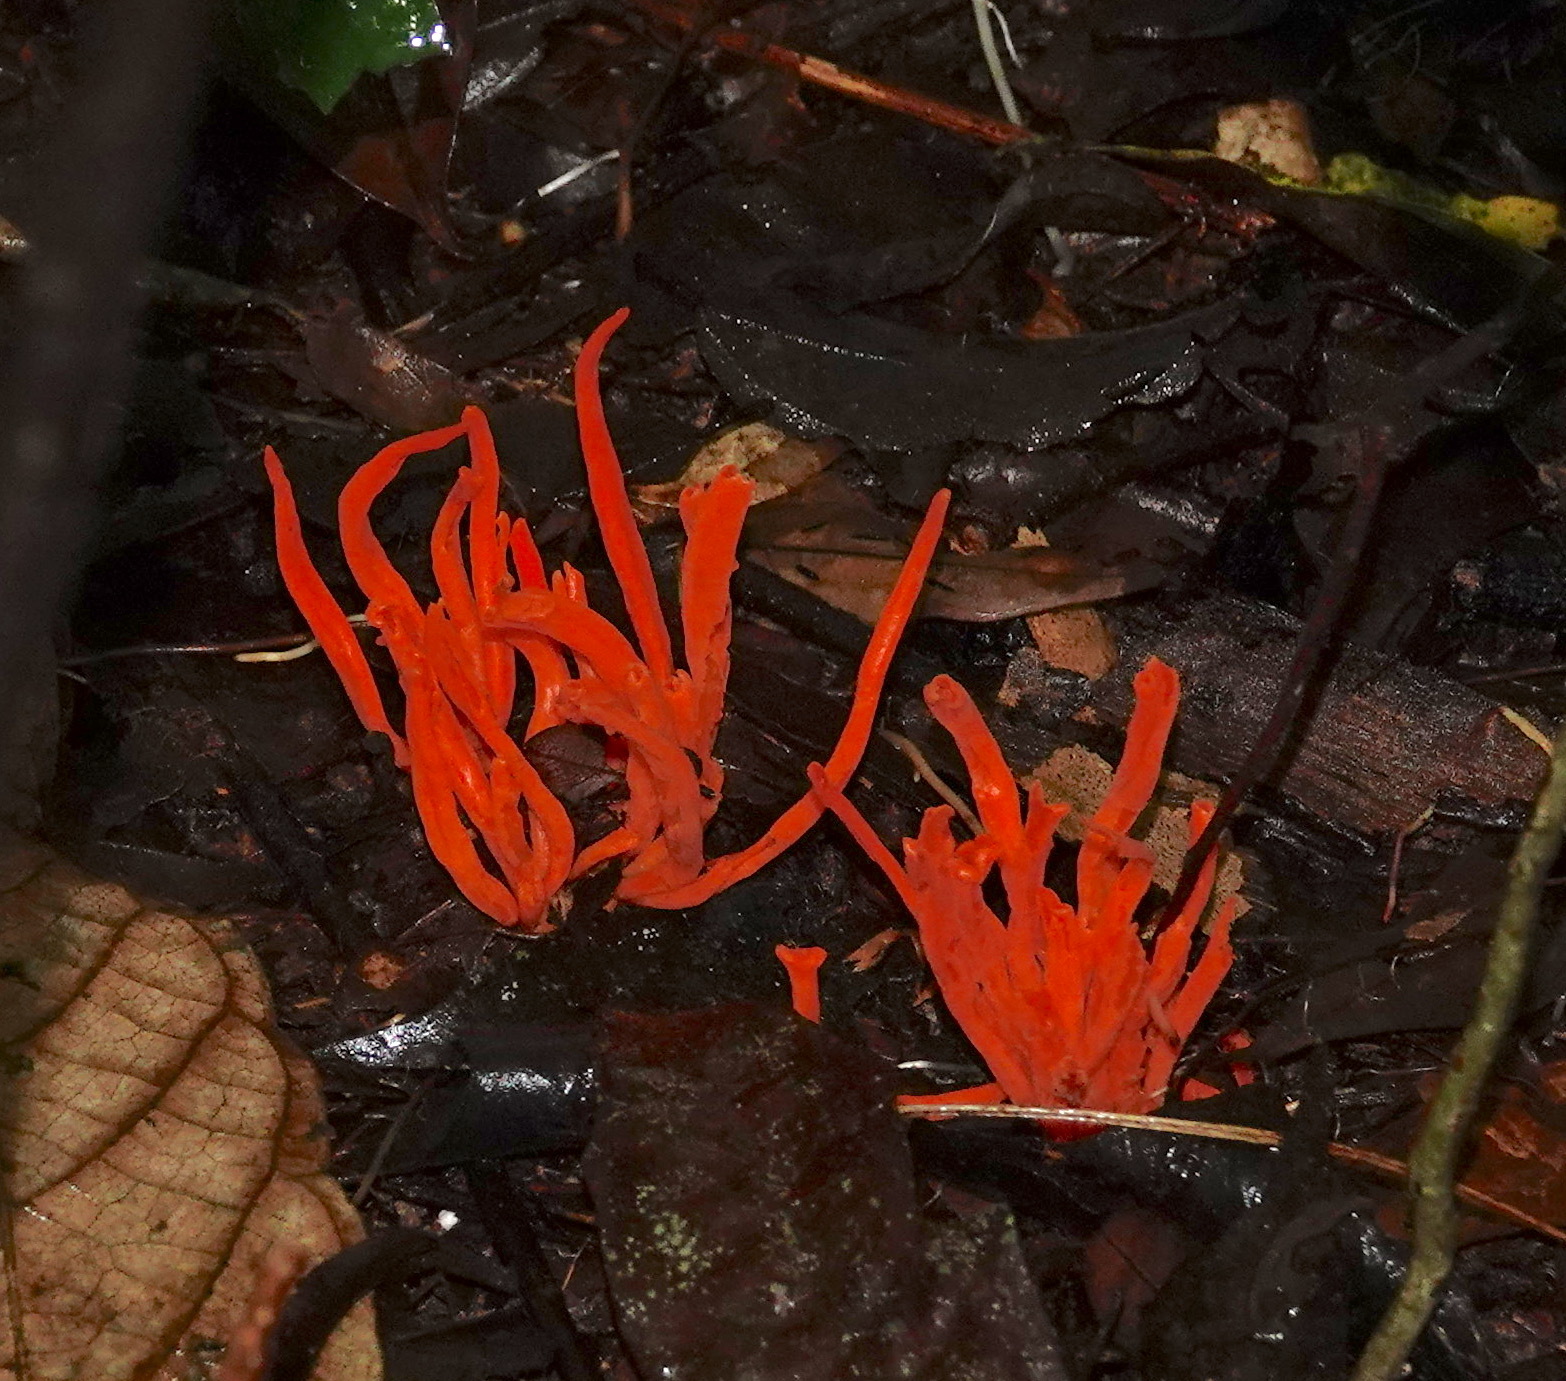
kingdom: Fungi
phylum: Basidiomycota
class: Agaricomycetes
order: Agaricales
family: Clavariaceae
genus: Clavaria
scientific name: Clavaria phoenicea
